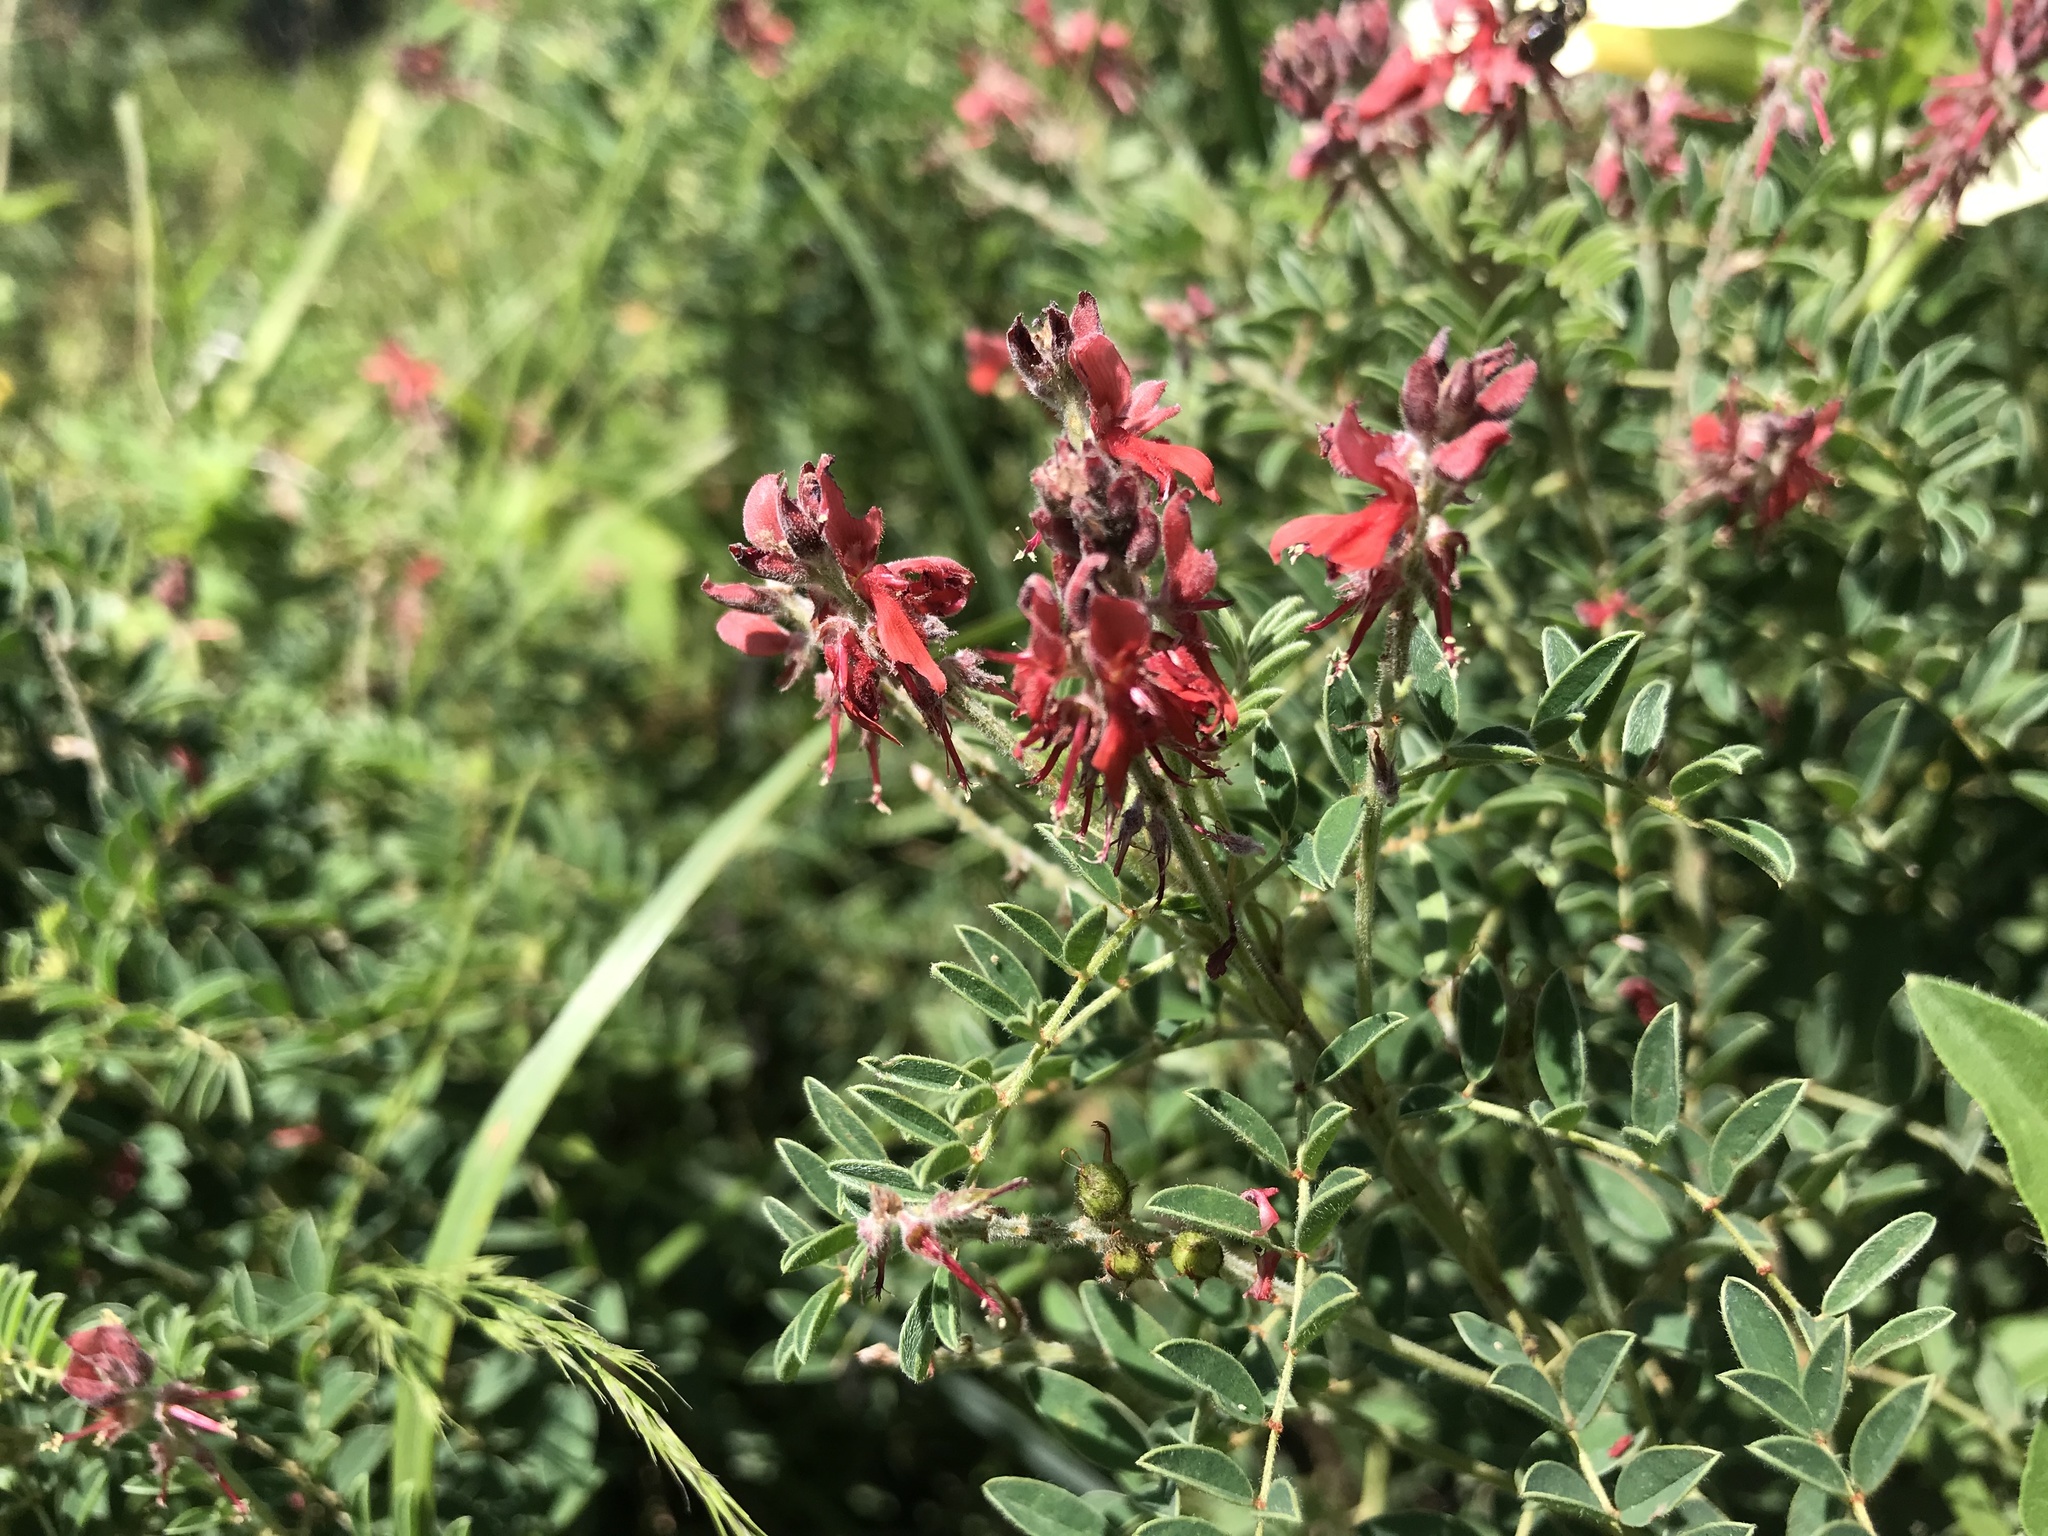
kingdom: Plantae
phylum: Tracheophyta
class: Magnoliopsida
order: Fabales
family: Fabaceae
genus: Indigofera
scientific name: Indigofera eriocarpa
